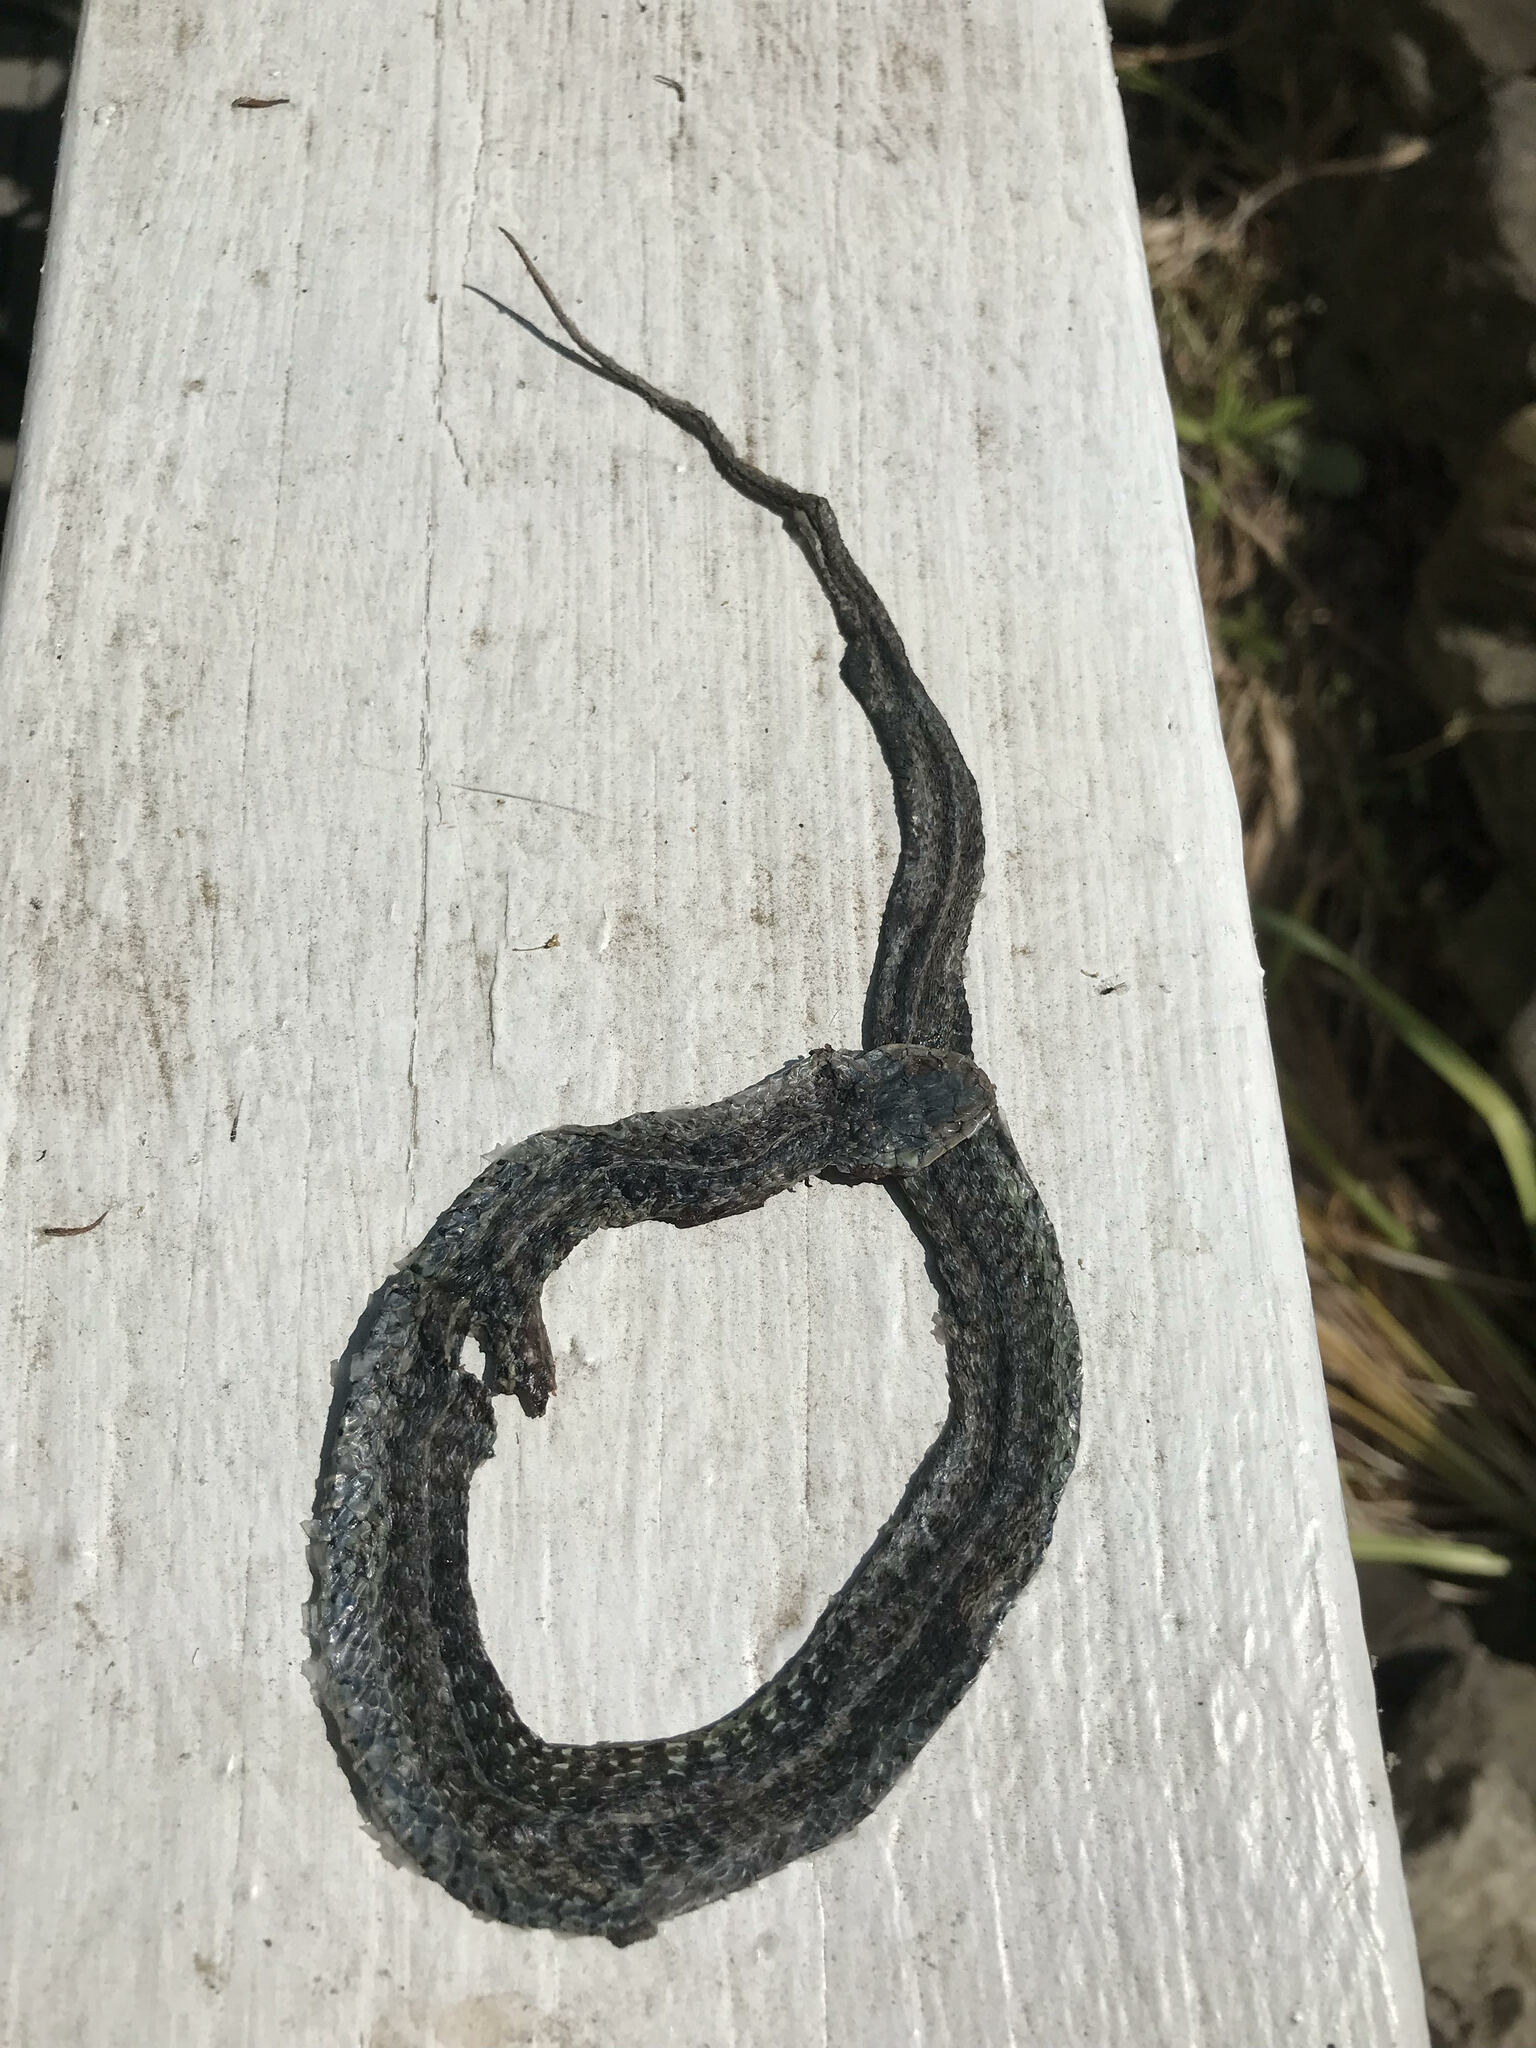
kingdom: Animalia
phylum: Chordata
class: Squamata
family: Colubridae
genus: Thamnophis
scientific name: Thamnophis sirtalis
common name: Common garter snake
